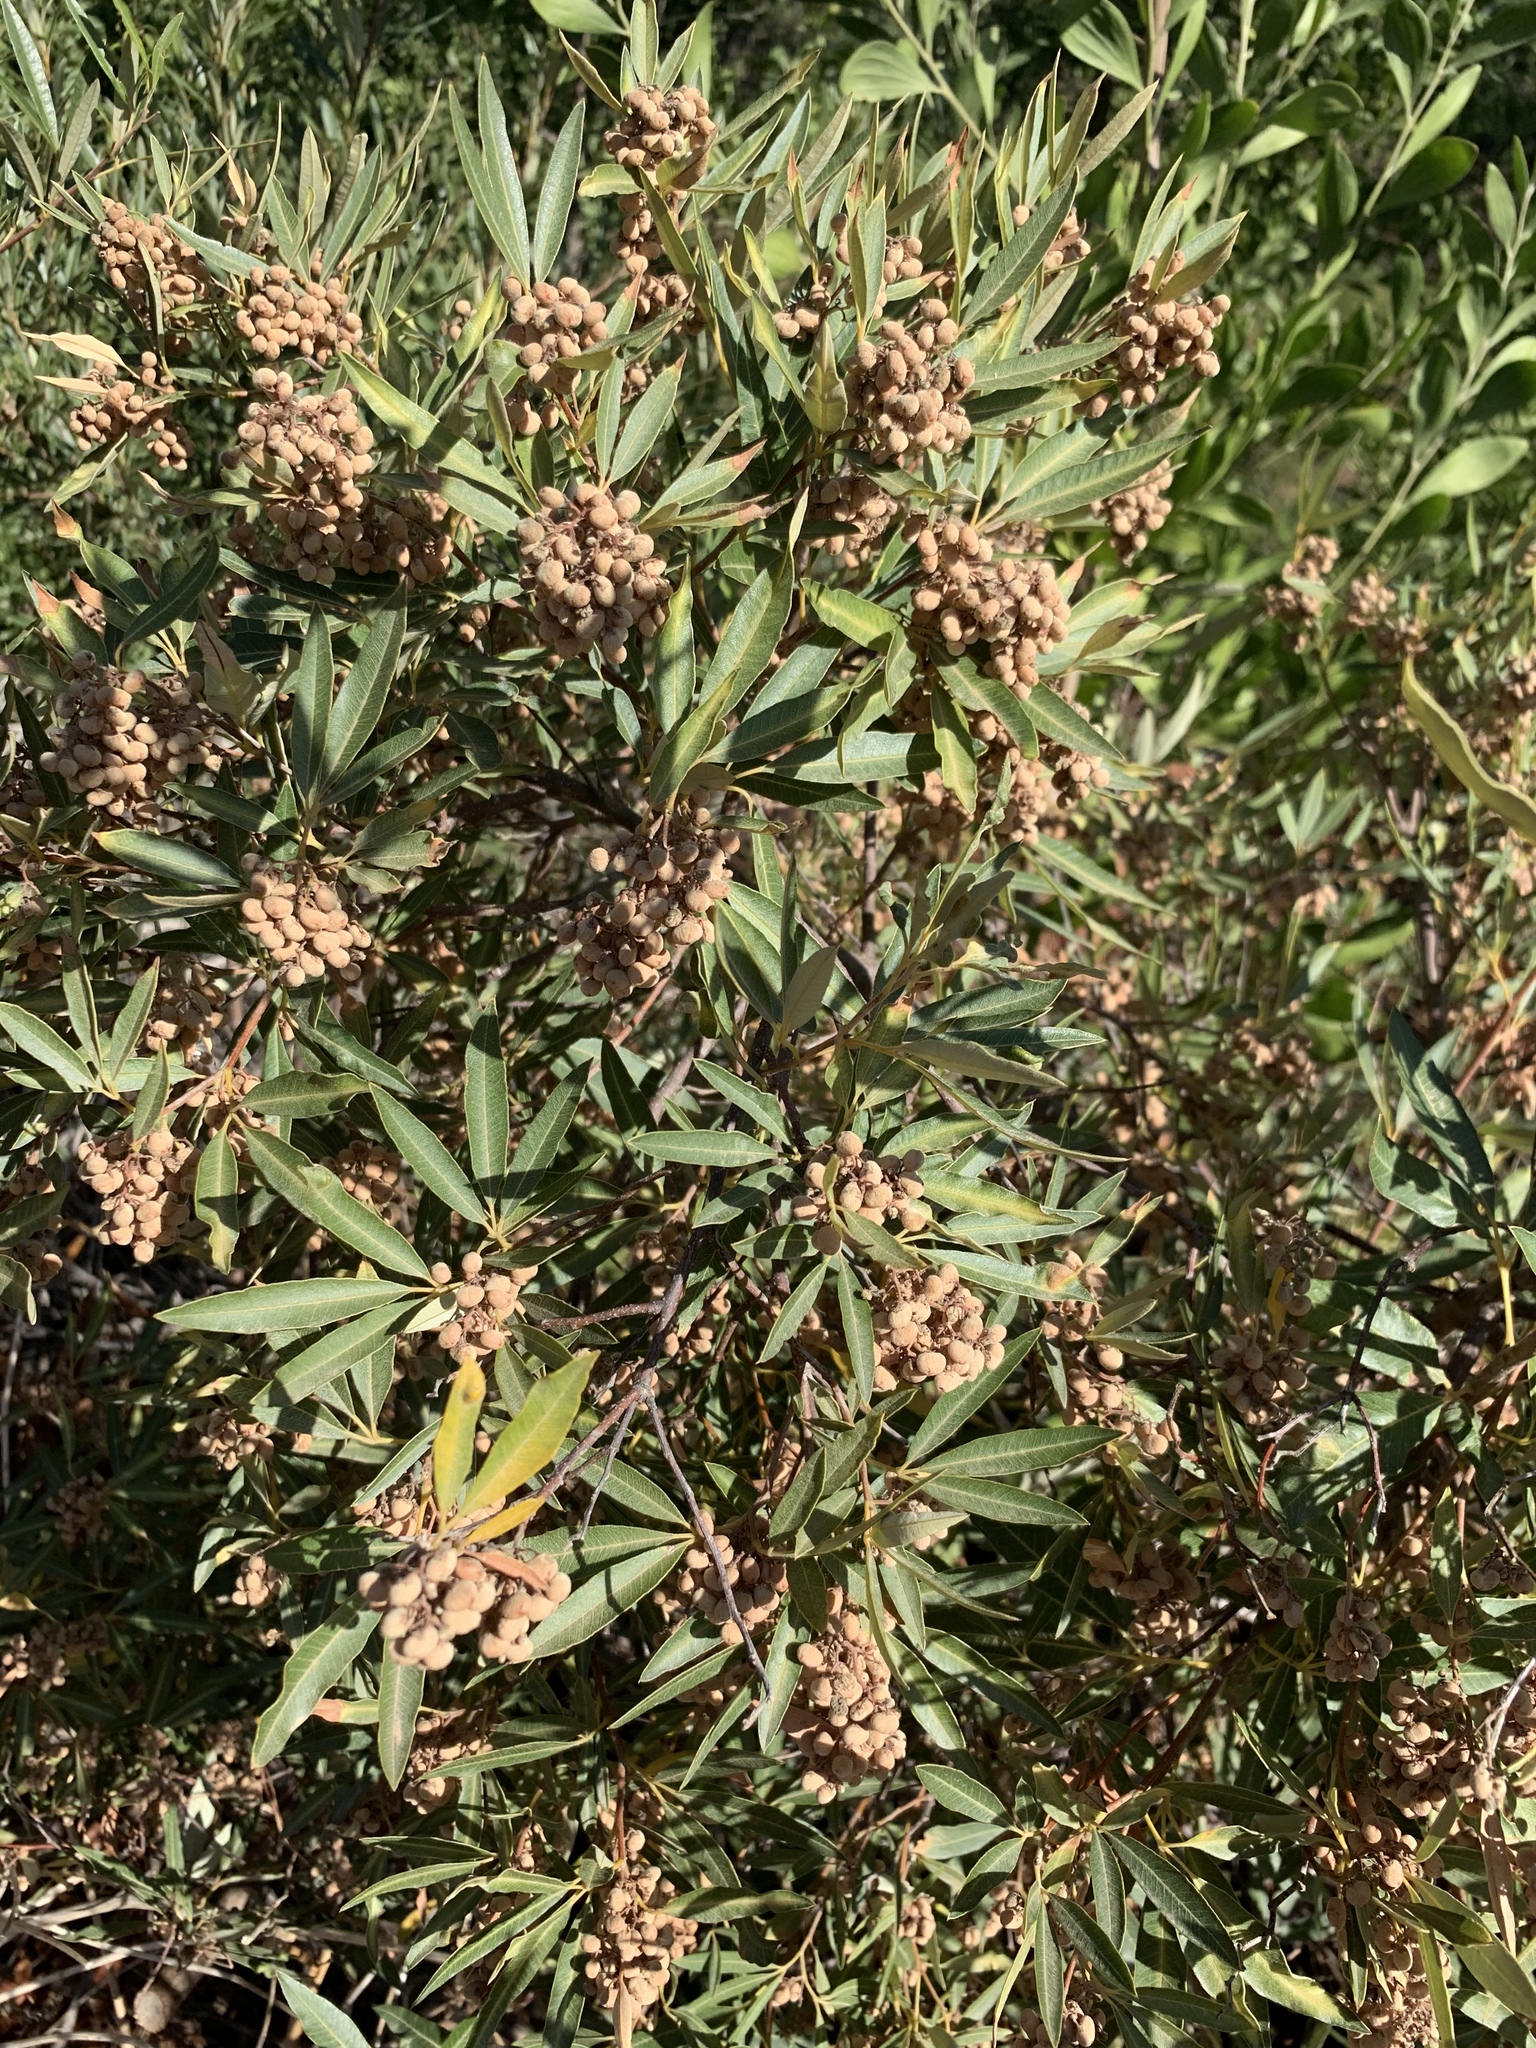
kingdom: Plantae
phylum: Tracheophyta
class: Magnoliopsida
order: Sapindales
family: Anacardiaceae
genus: Searsia
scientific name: Searsia angustifolia
